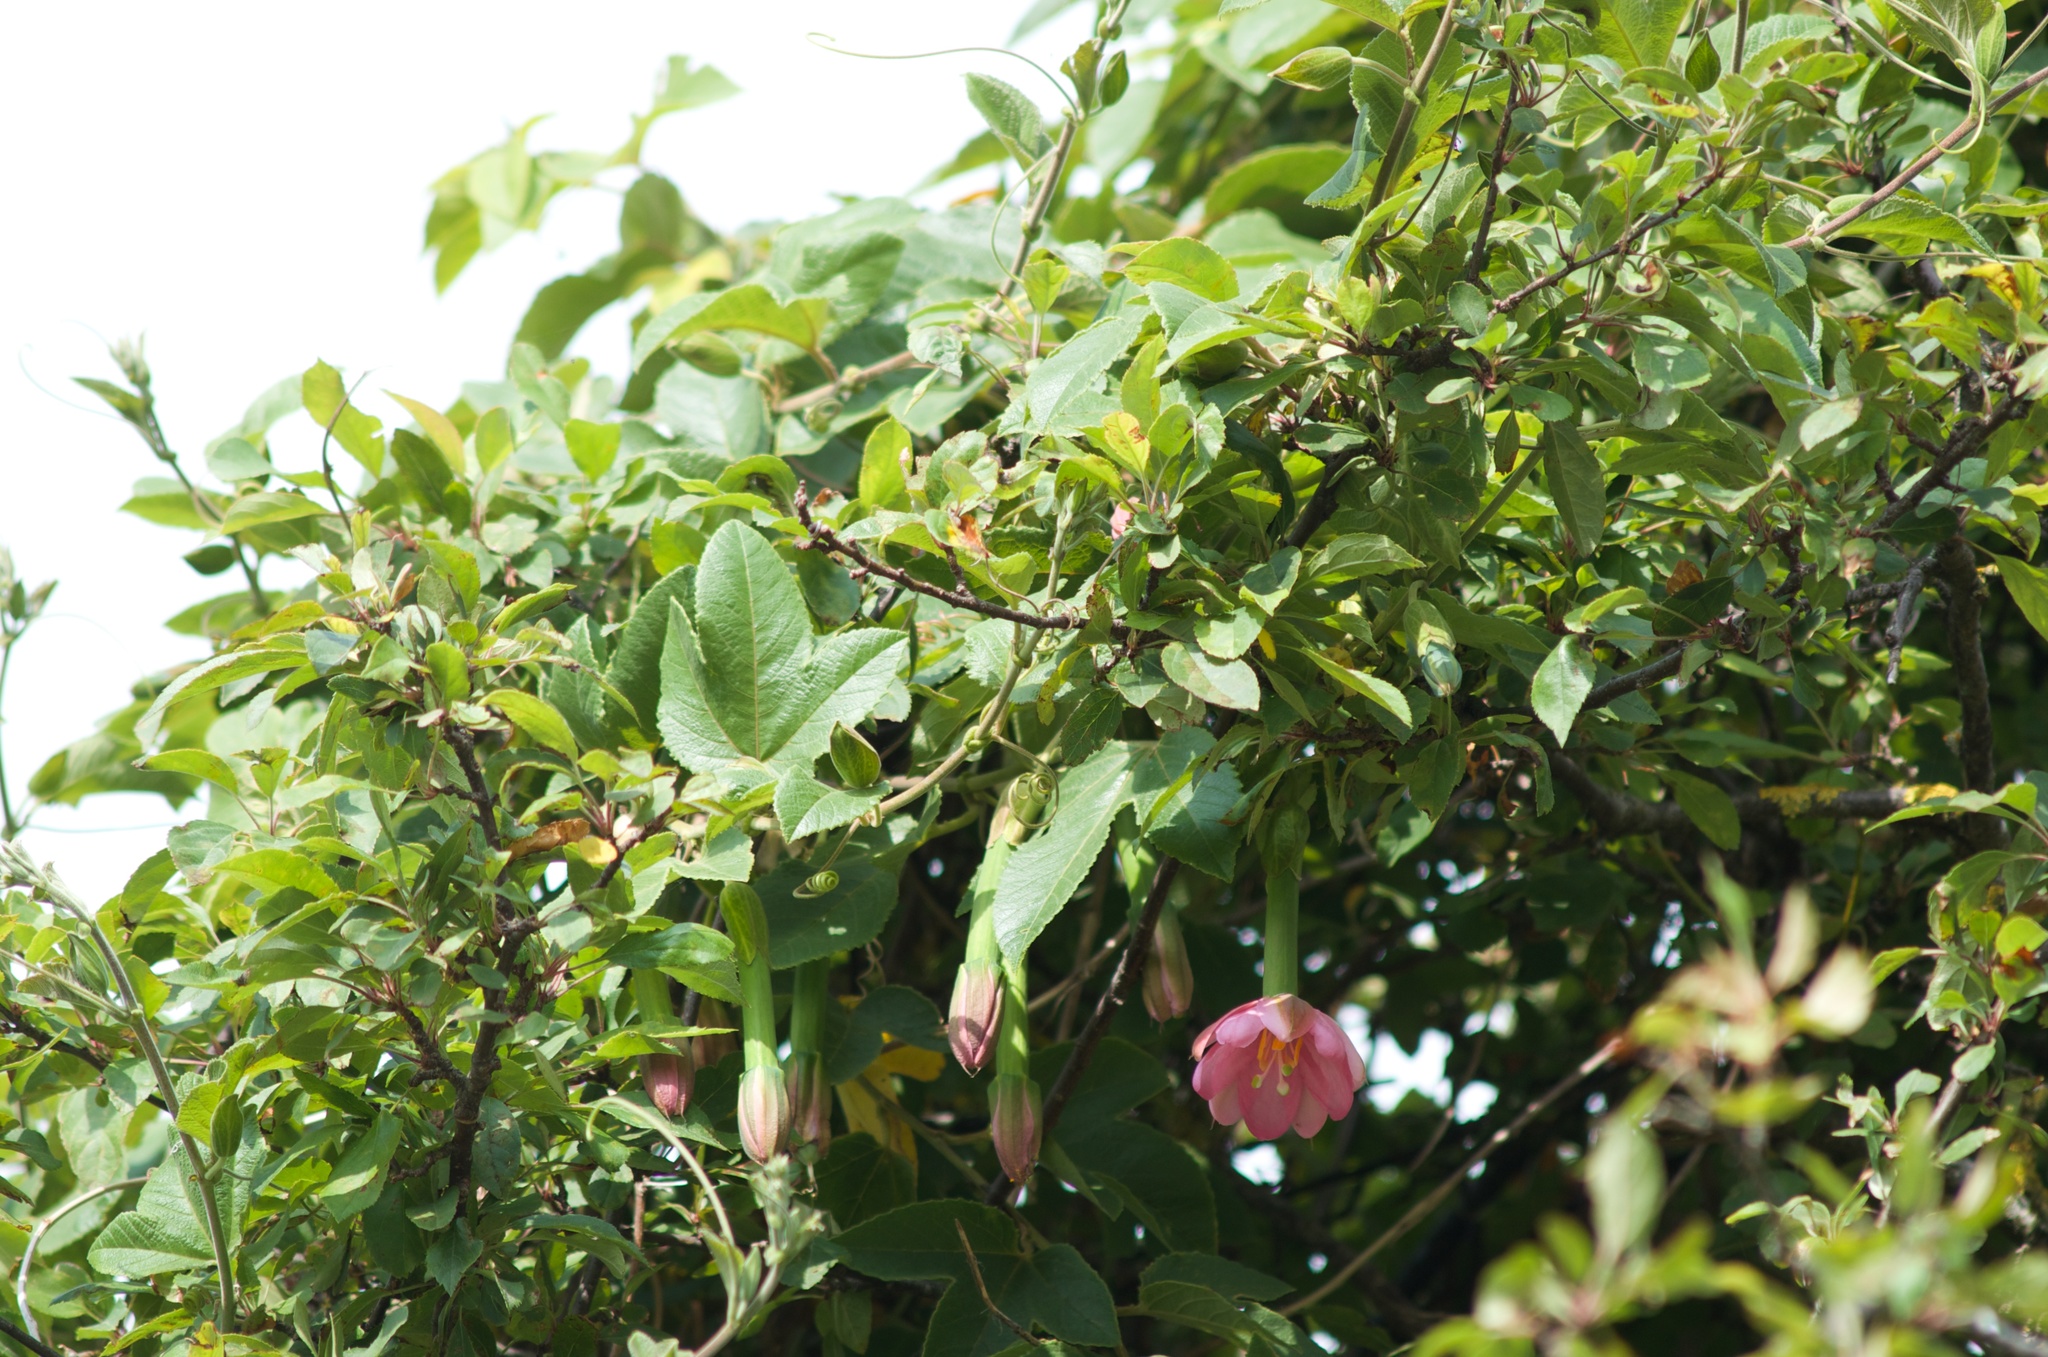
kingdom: Plantae
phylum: Tracheophyta
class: Magnoliopsida
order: Malpighiales
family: Passifloraceae
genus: Passiflora
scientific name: Passiflora tripartita
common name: Banana poka
